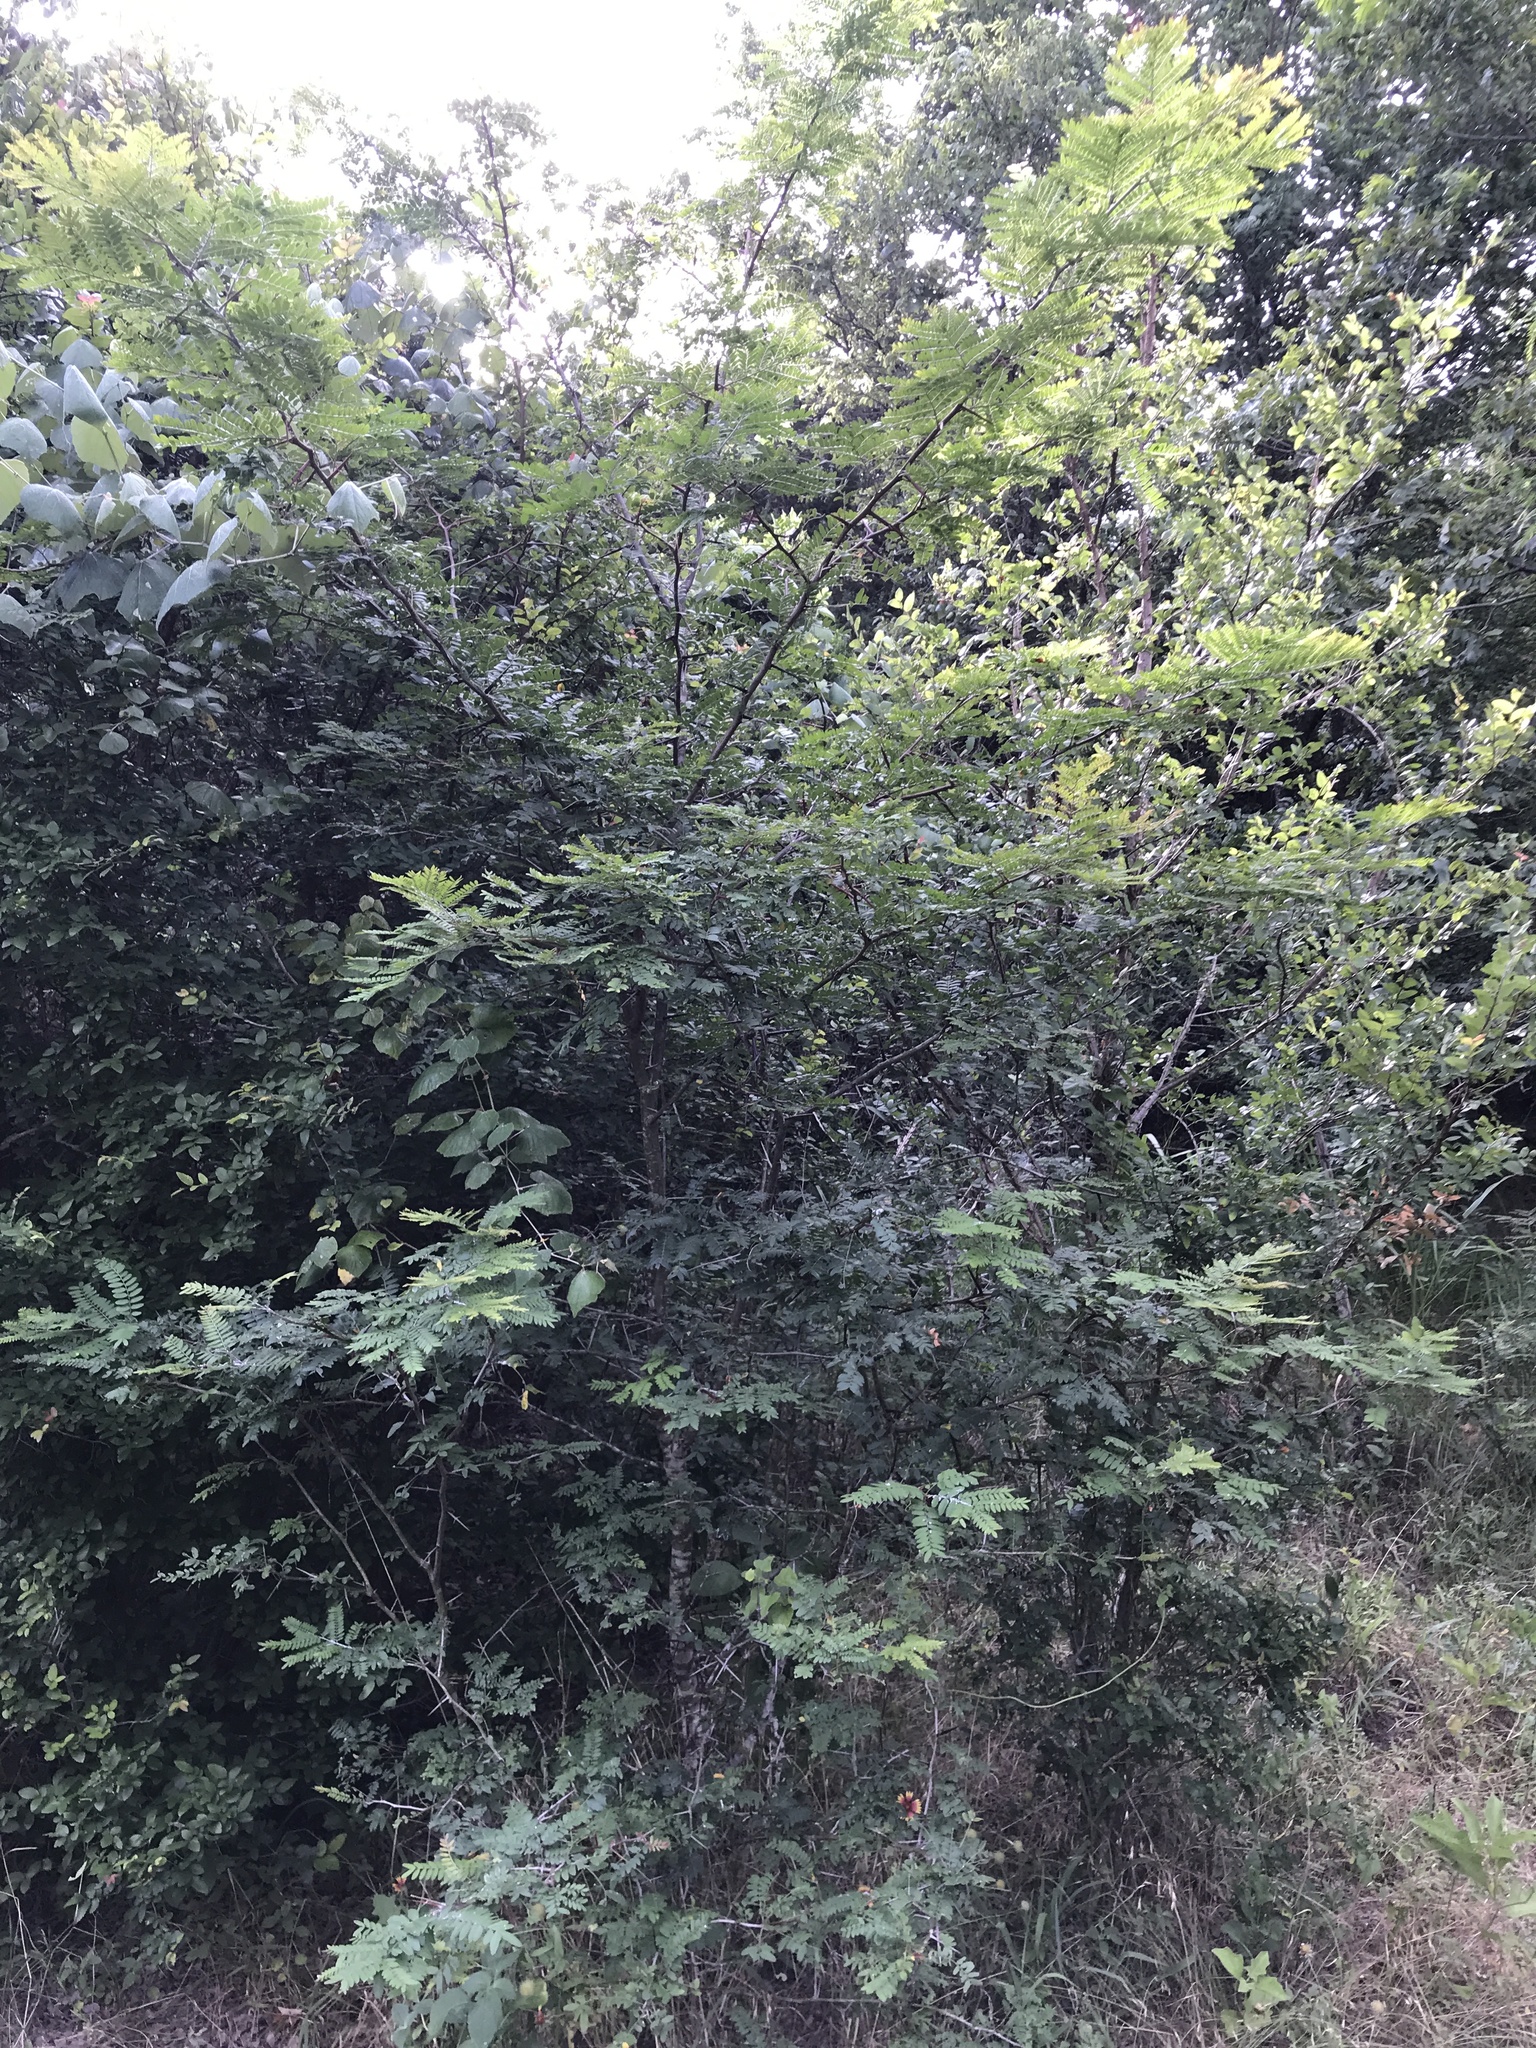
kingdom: Plantae
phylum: Tracheophyta
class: Magnoliopsida
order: Fabales
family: Fabaceae
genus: Gleditsia
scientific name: Gleditsia triacanthos
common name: Common honeylocust
